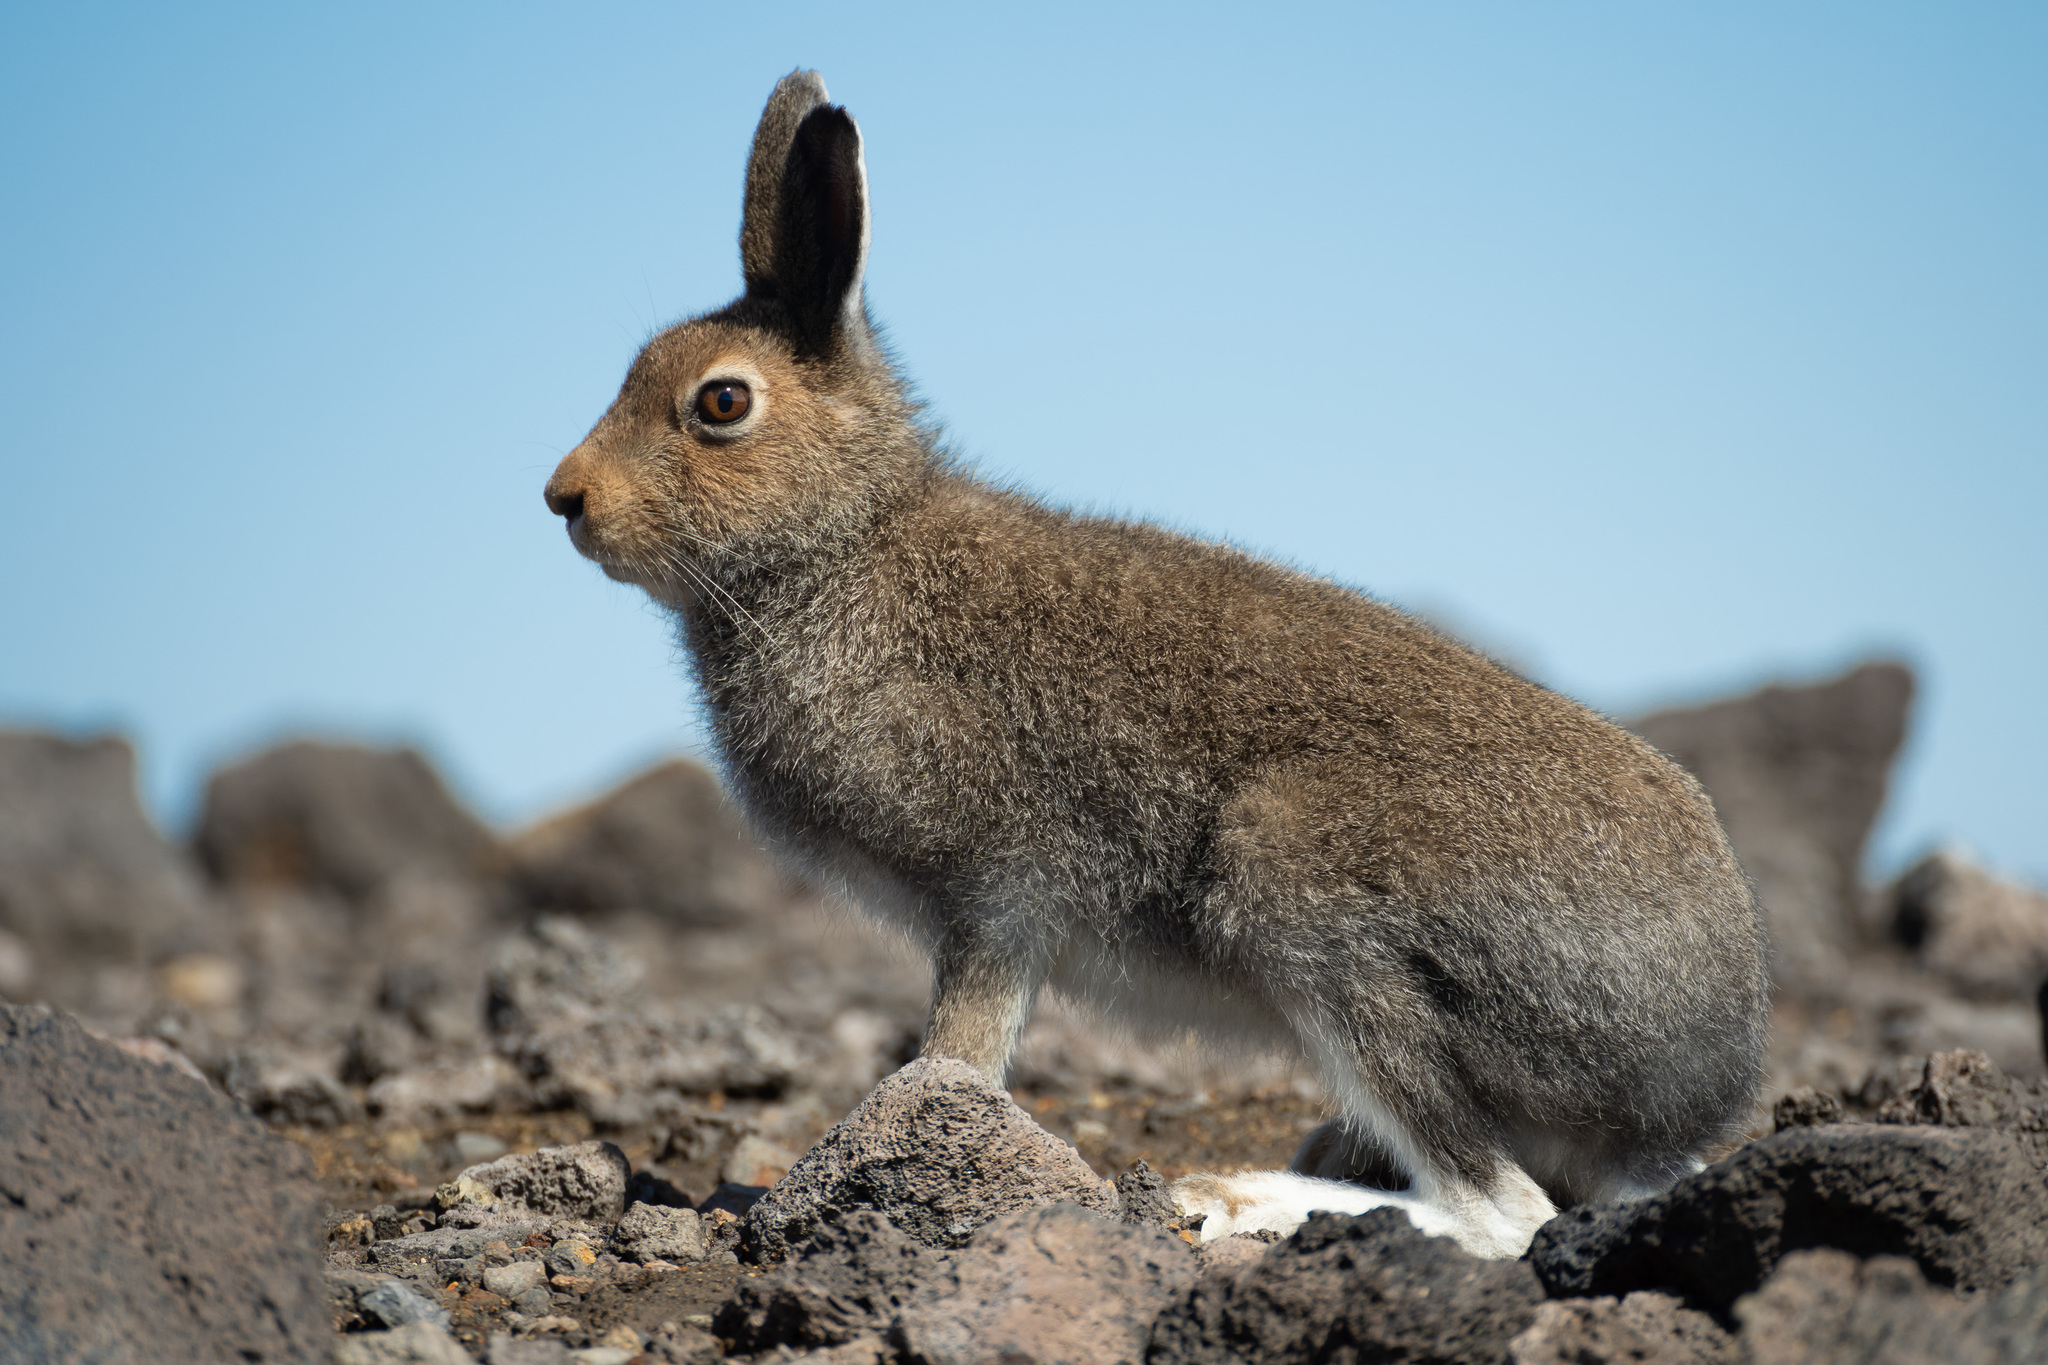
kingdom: Animalia
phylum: Chordata
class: Mammalia
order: Lagomorpha
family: Leporidae
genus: Lepus
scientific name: Lepus timidus
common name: Mountain hare
